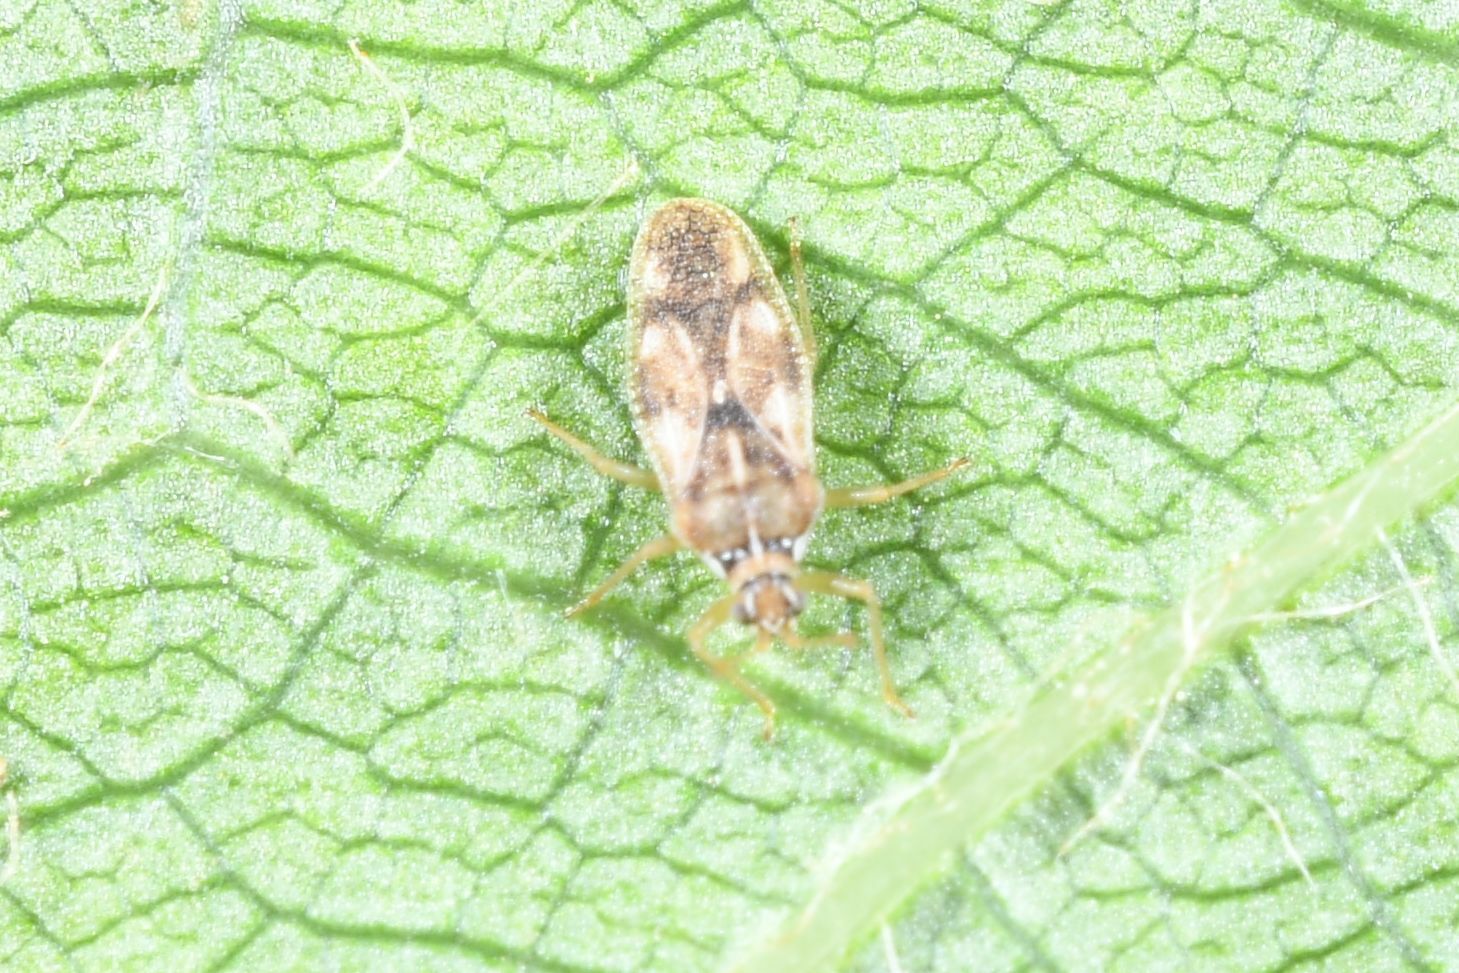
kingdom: Animalia
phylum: Arthropoda
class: Insecta
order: Hemiptera
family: Tingidae
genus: Monosteira
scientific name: Monosteira unicostata
